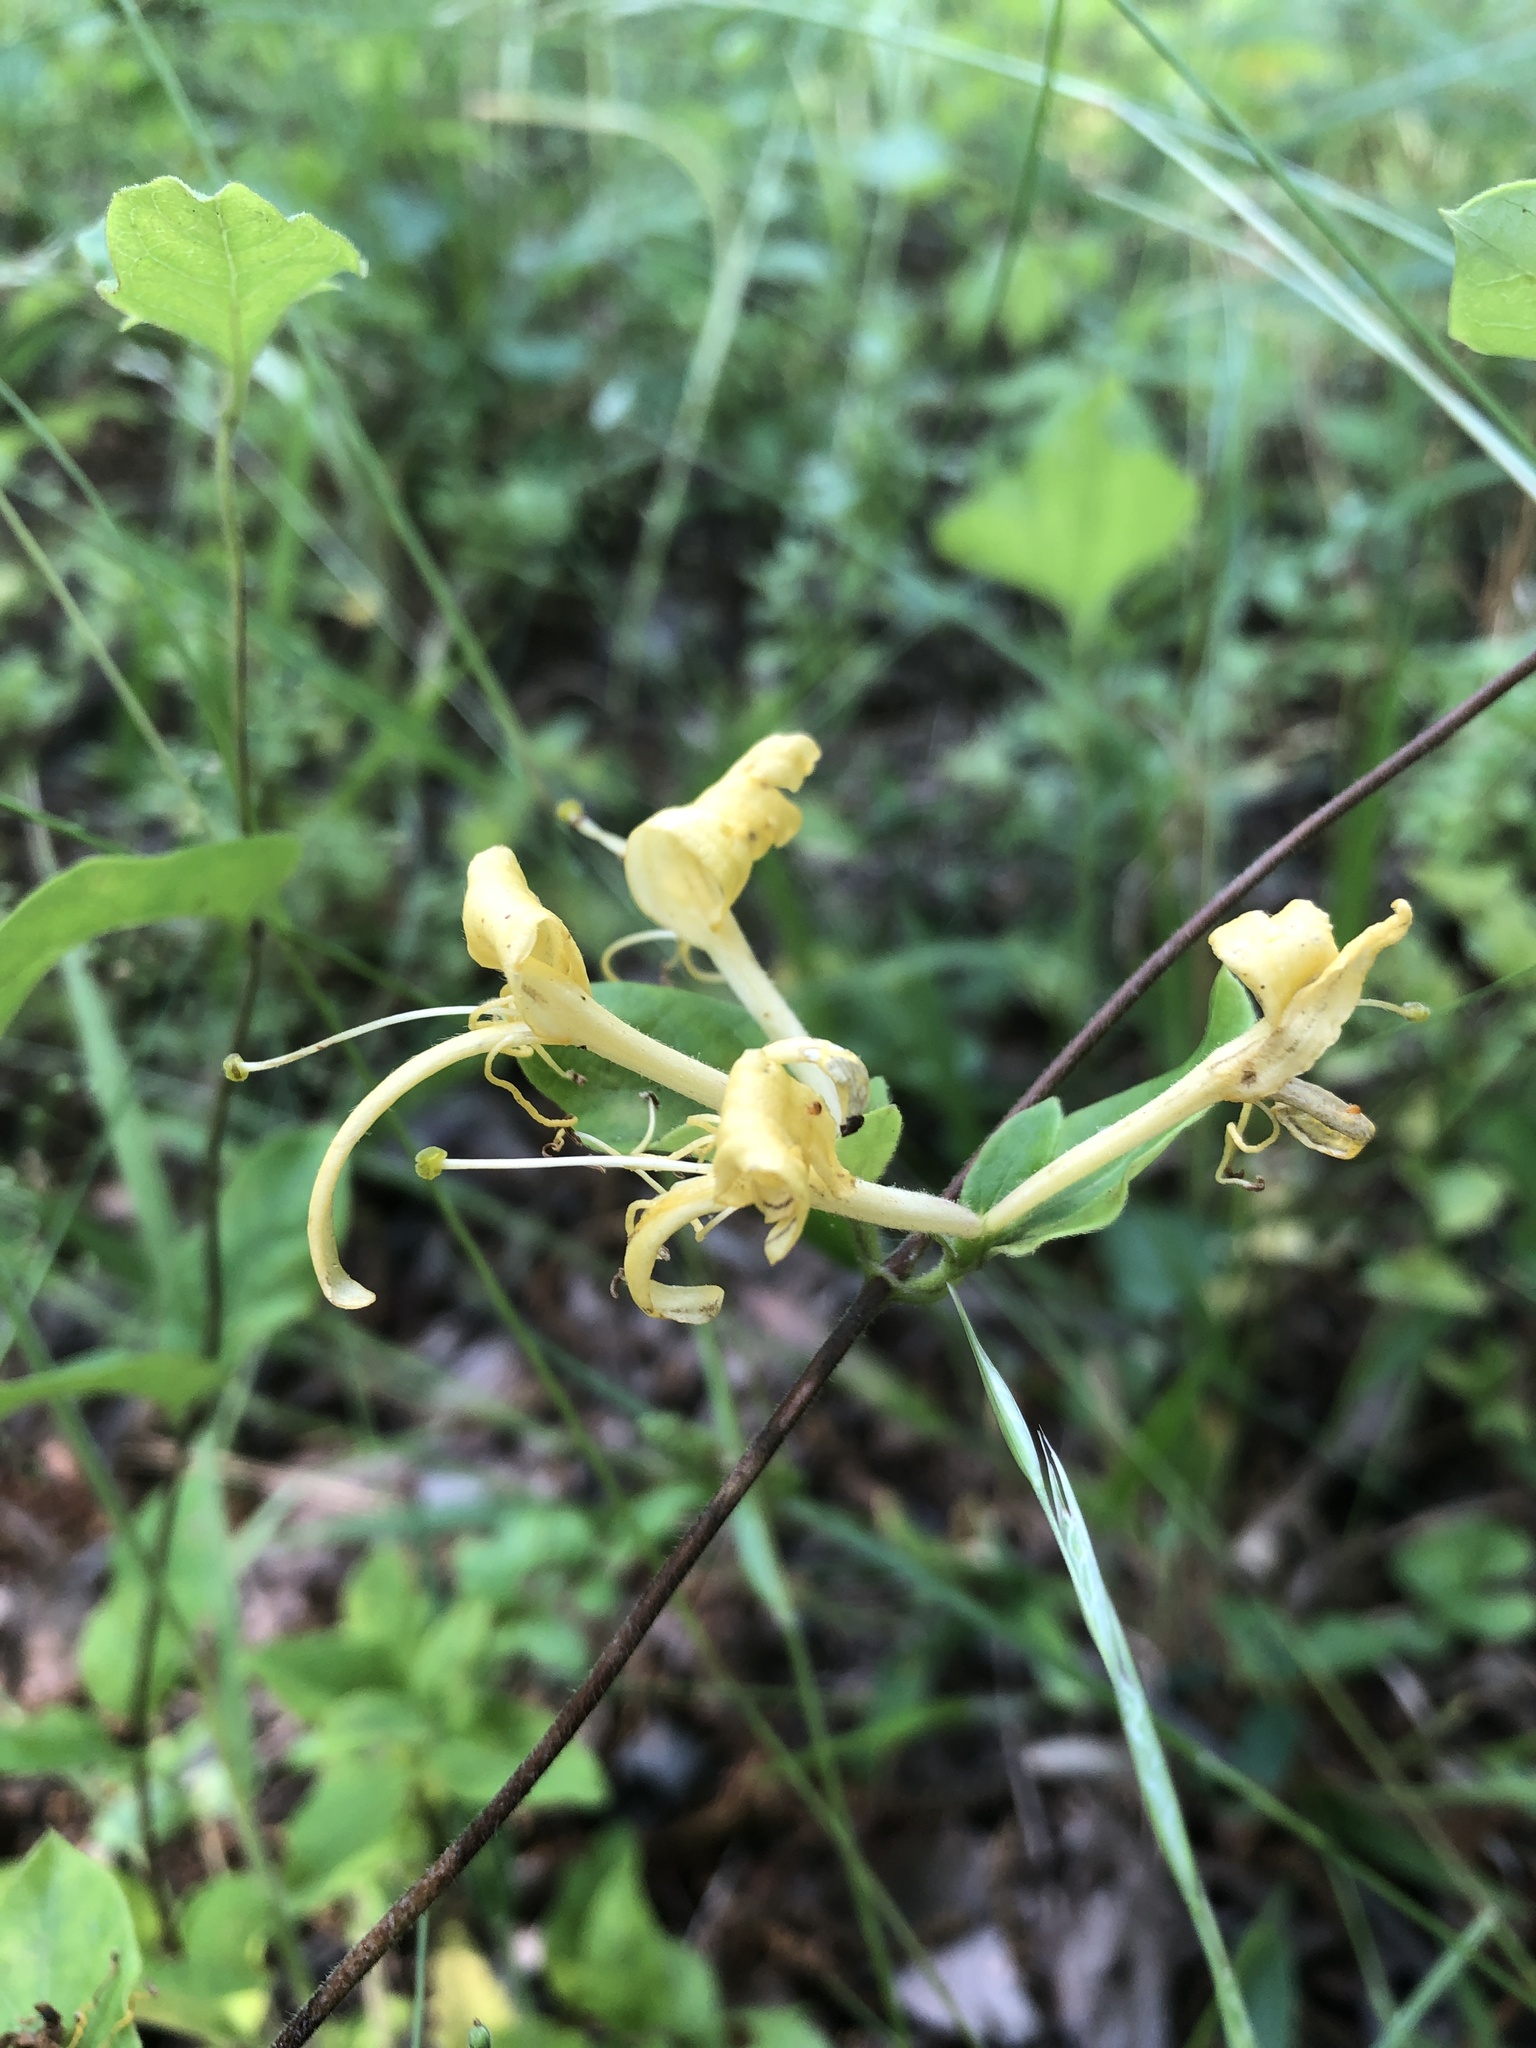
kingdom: Plantae
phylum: Tracheophyta
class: Magnoliopsida
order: Dipsacales
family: Caprifoliaceae
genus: Lonicera
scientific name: Lonicera japonica
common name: Japanese honeysuckle
